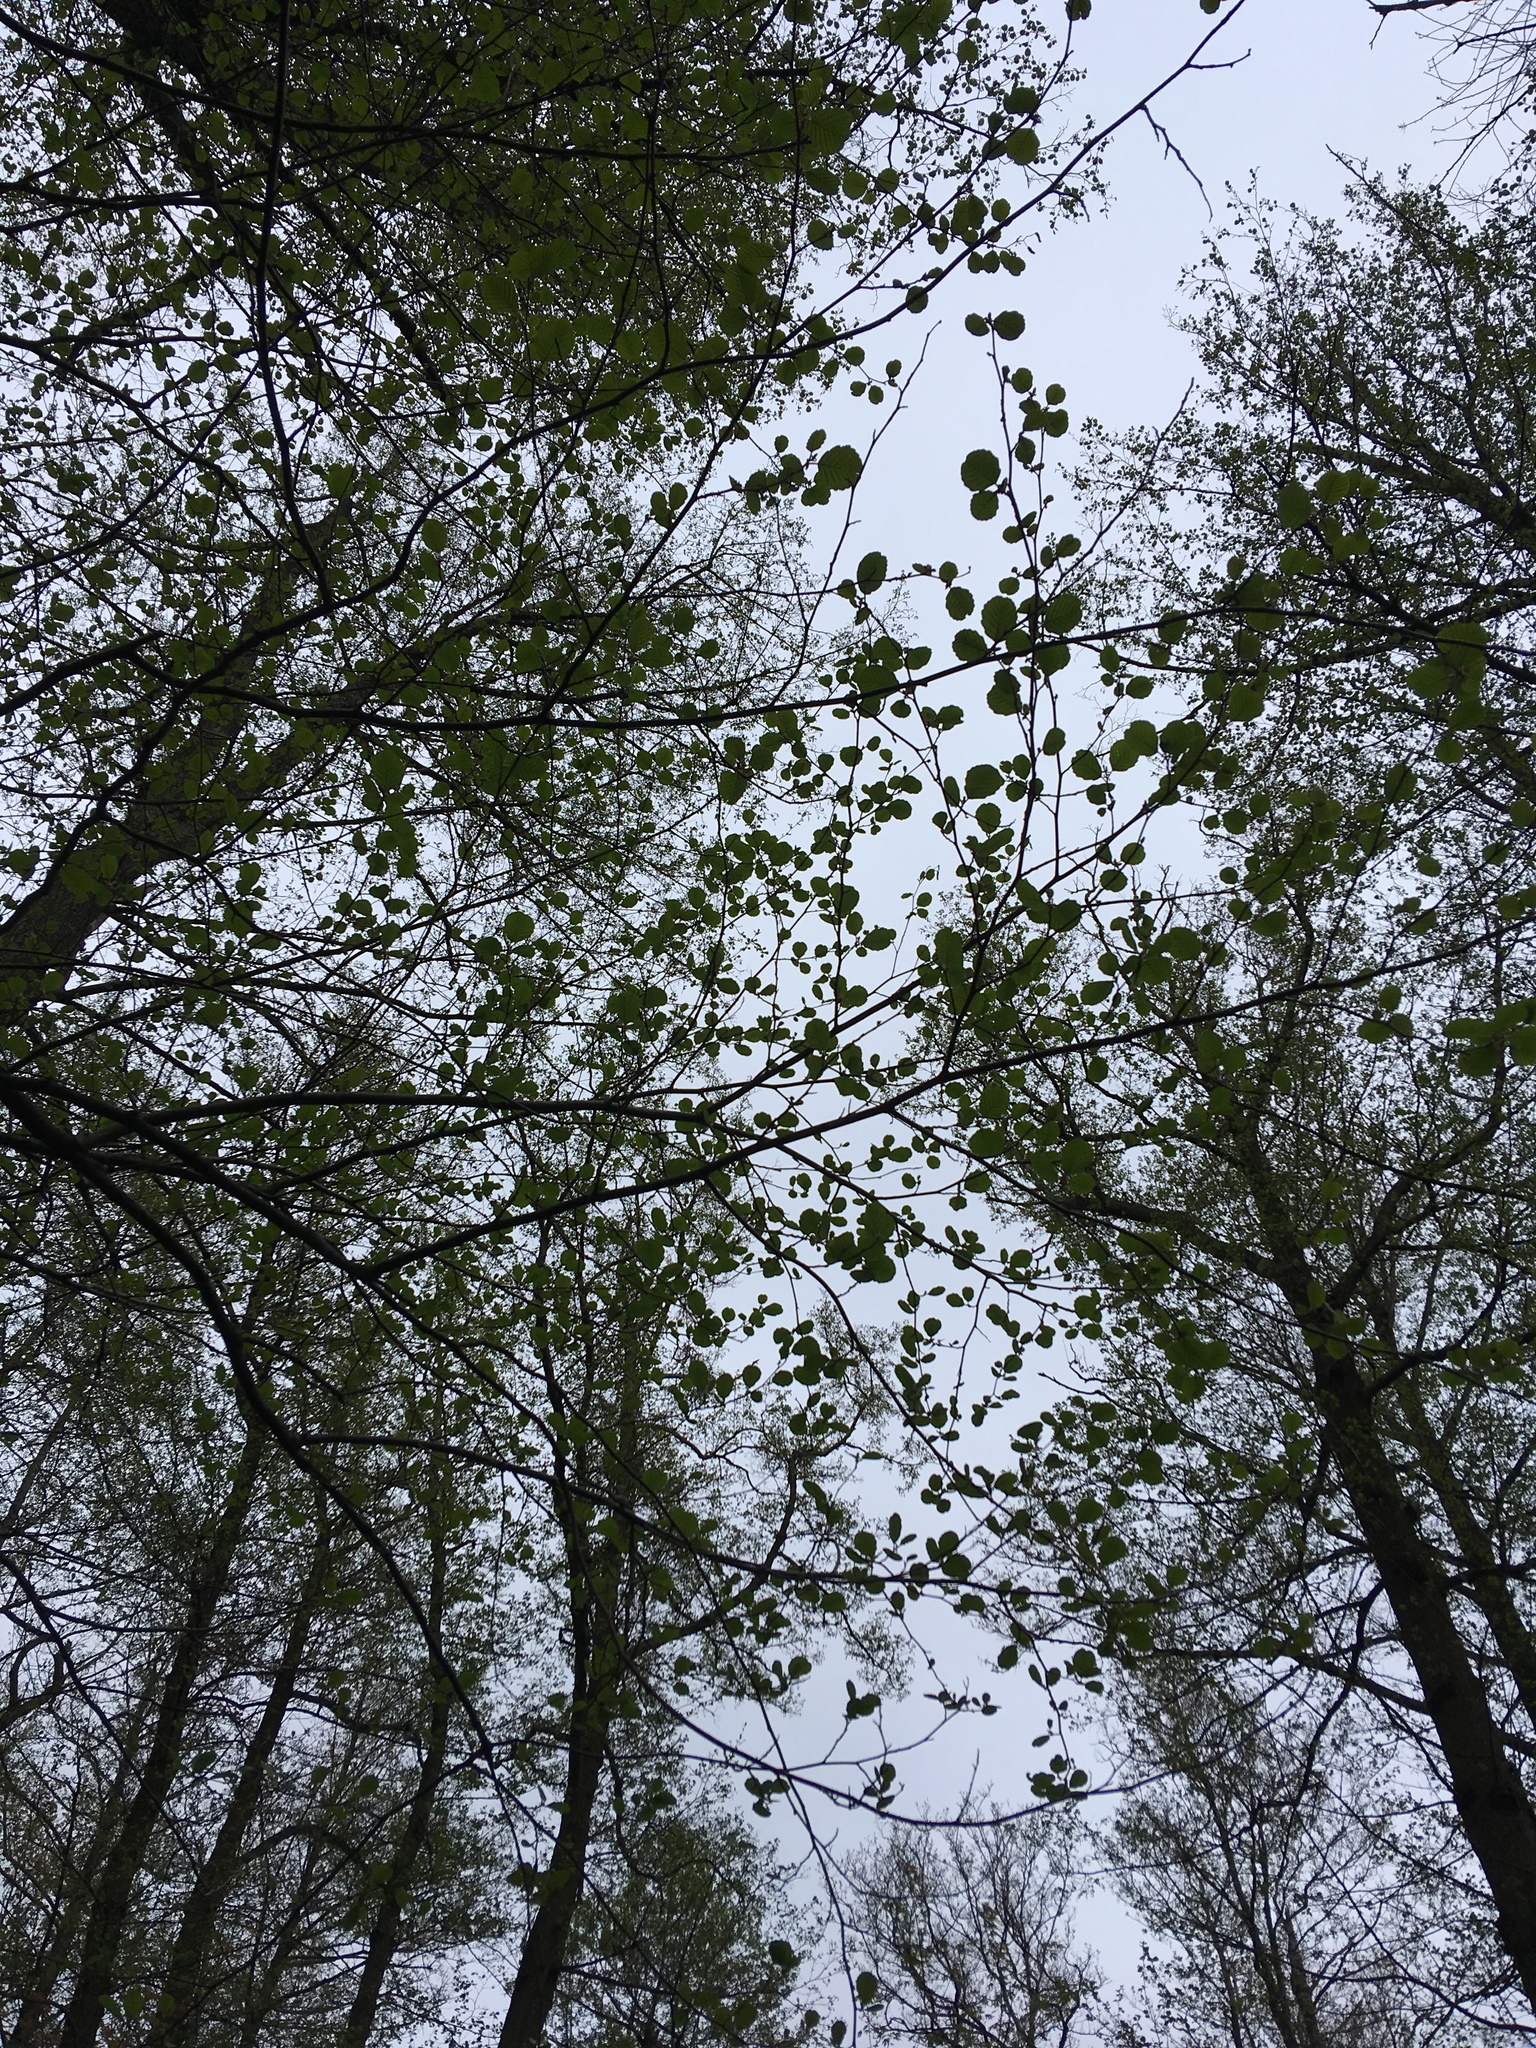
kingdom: Plantae
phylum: Tracheophyta
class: Magnoliopsida
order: Fagales
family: Betulaceae
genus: Alnus
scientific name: Alnus glutinosa
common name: Black alder
